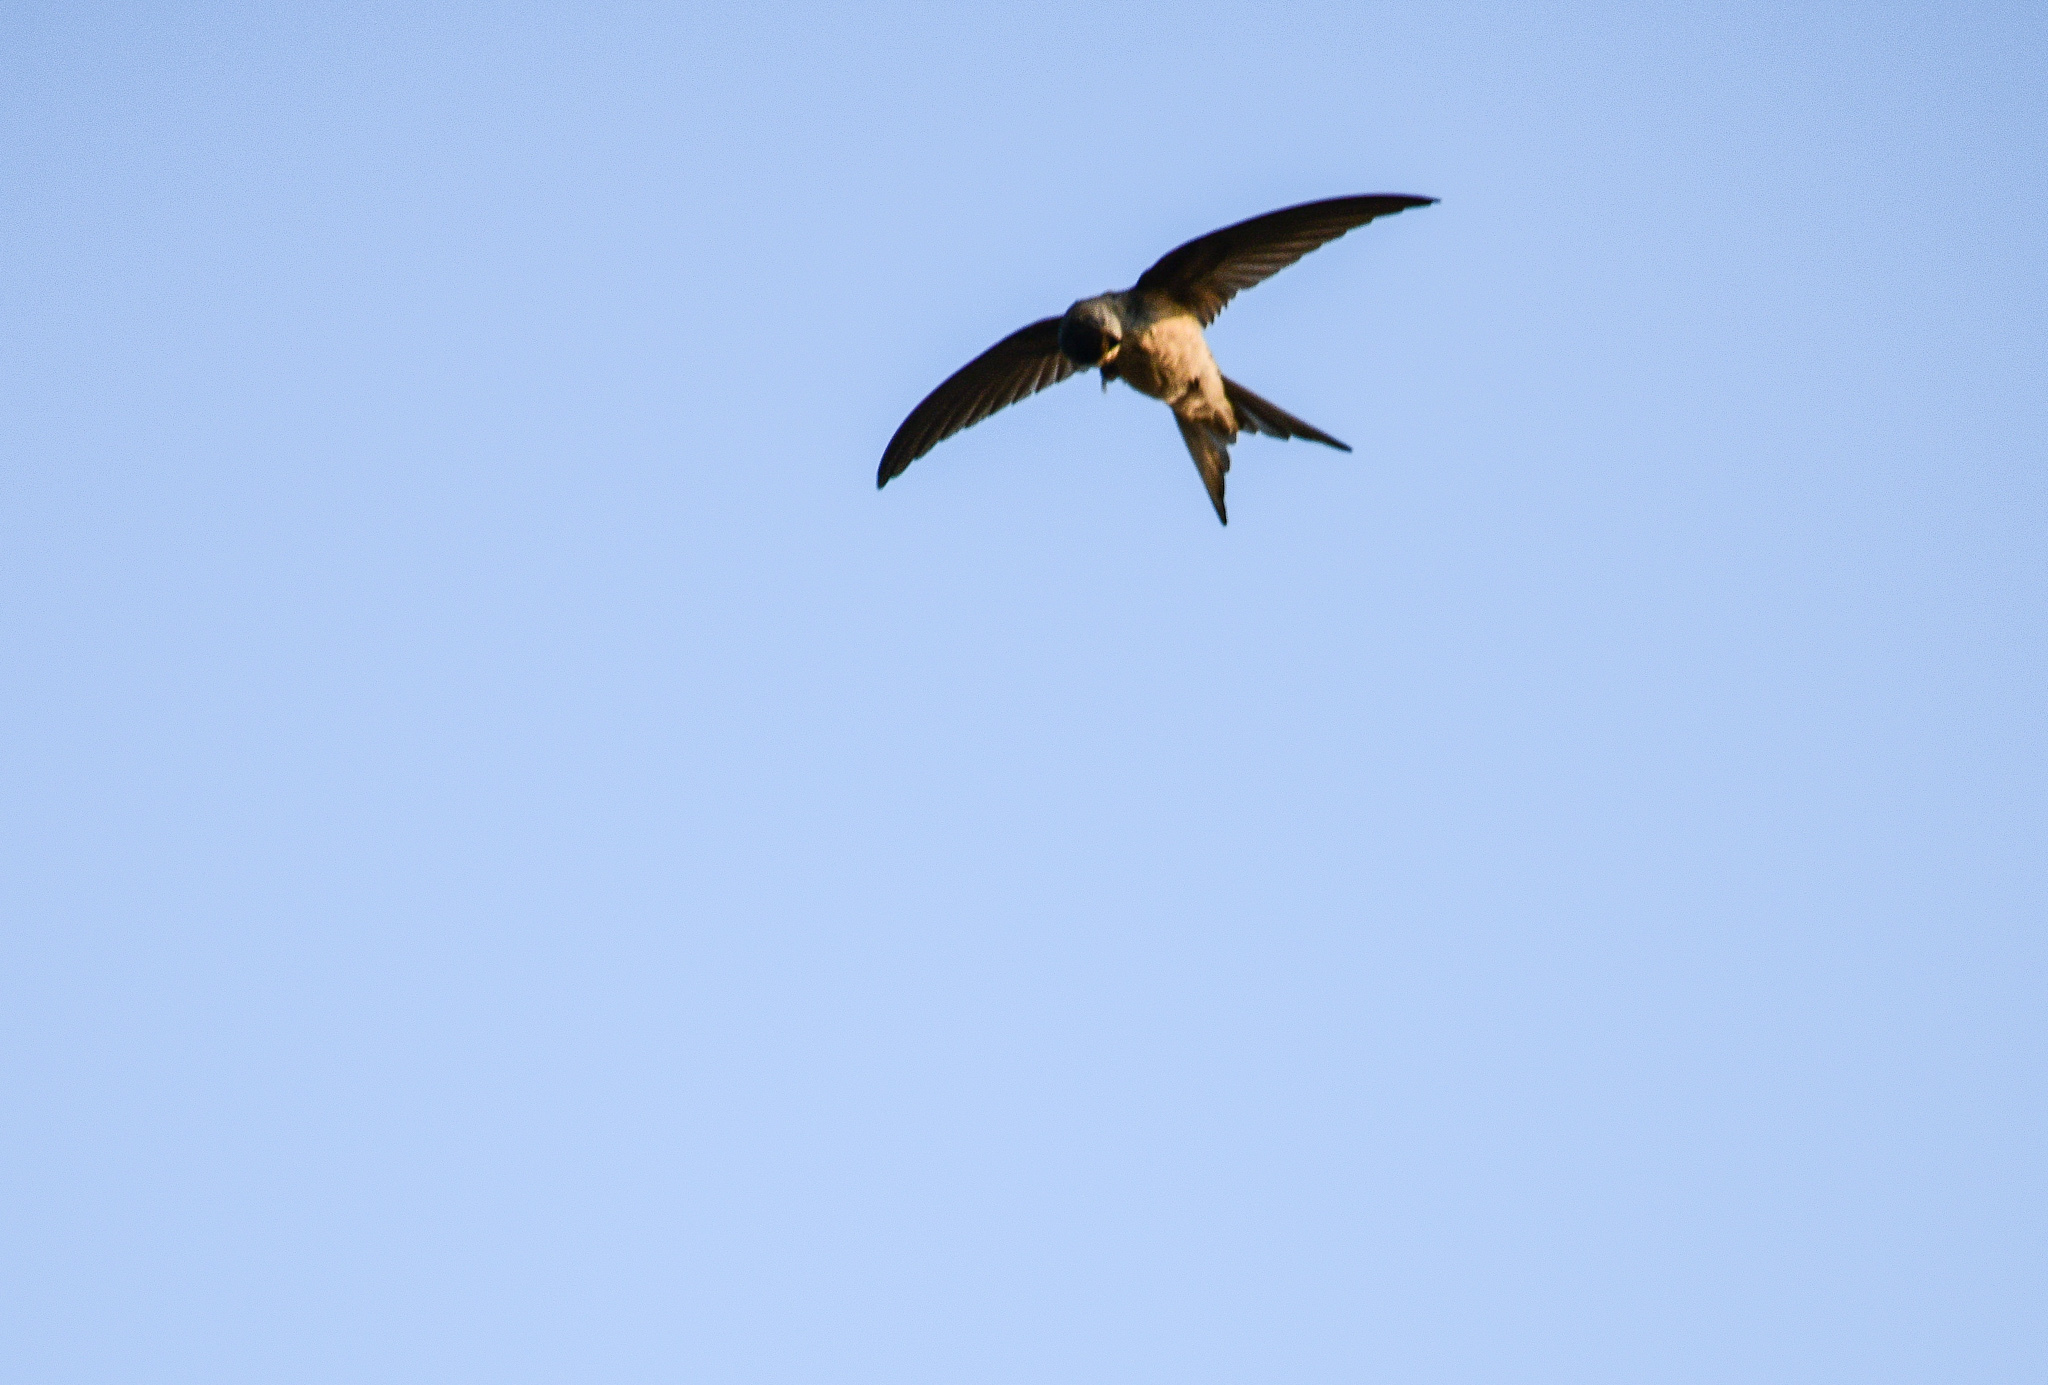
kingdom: Animalia
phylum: Chordata
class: Aves
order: Apodiformes
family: Apodidae
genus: Cypsiurus
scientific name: Cypsiurus balasiensis
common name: Asian palm swift
